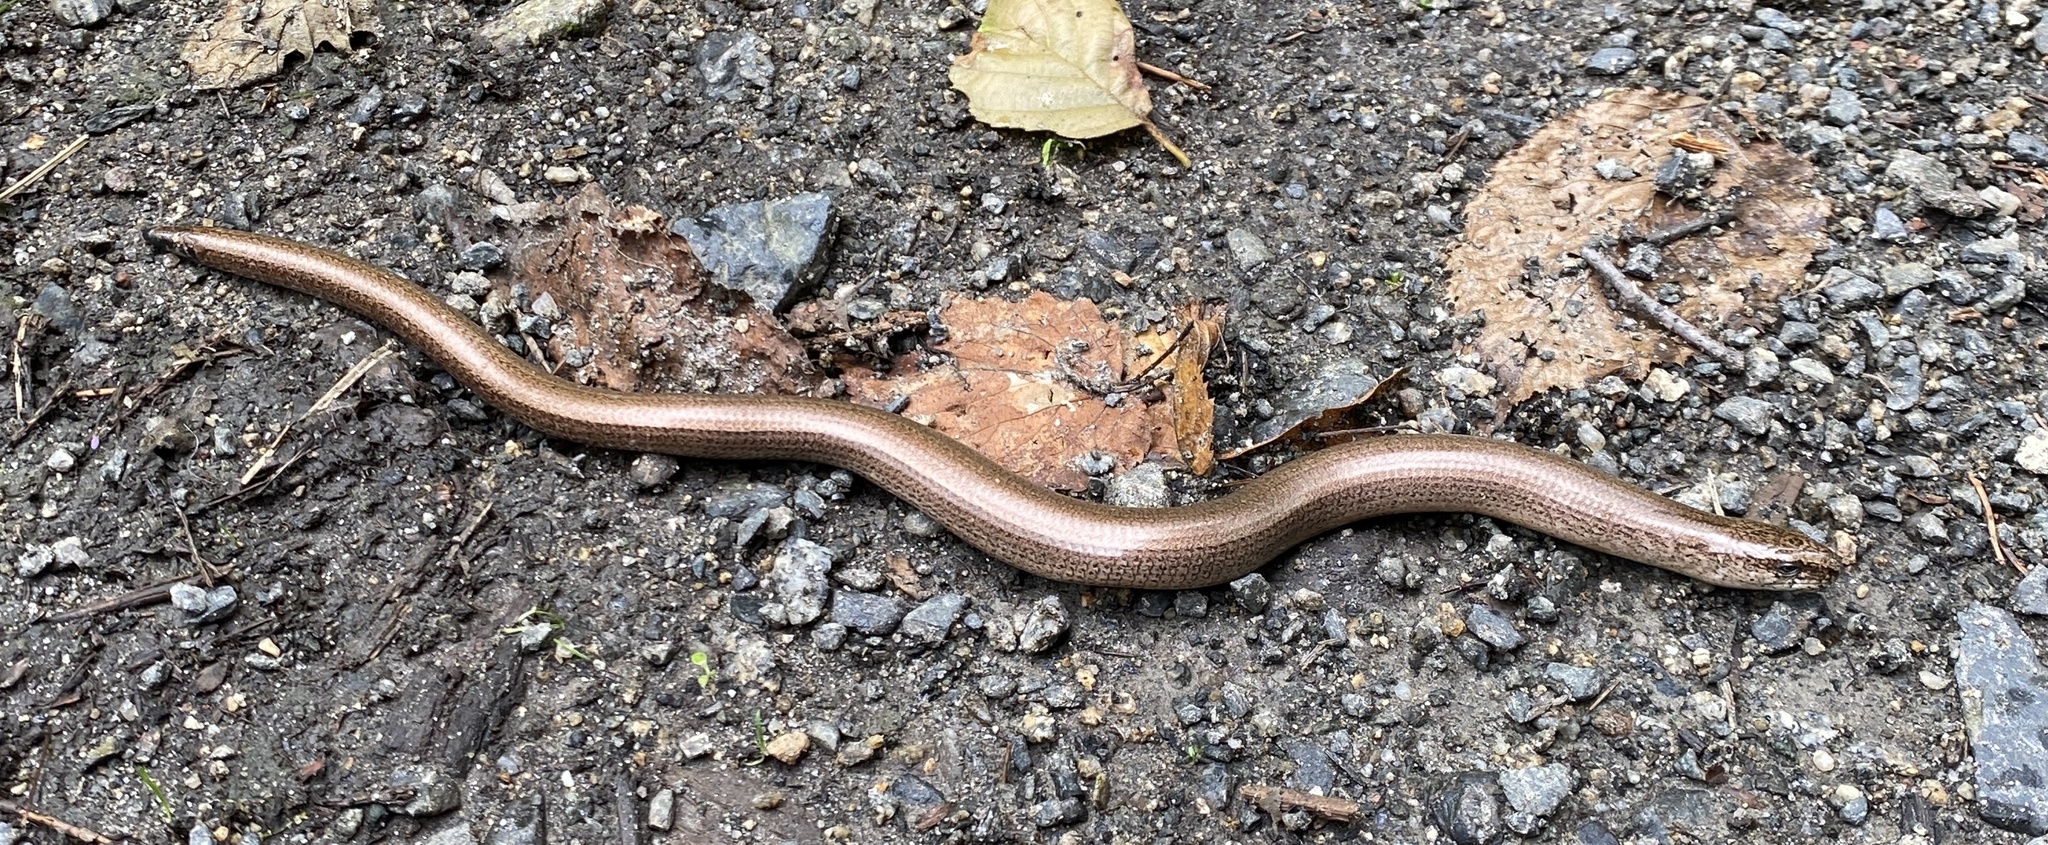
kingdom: Animalia
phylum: Chordata
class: Squamata
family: Anguidae
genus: Anguis
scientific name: Anguis fragilis
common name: Slow worm
